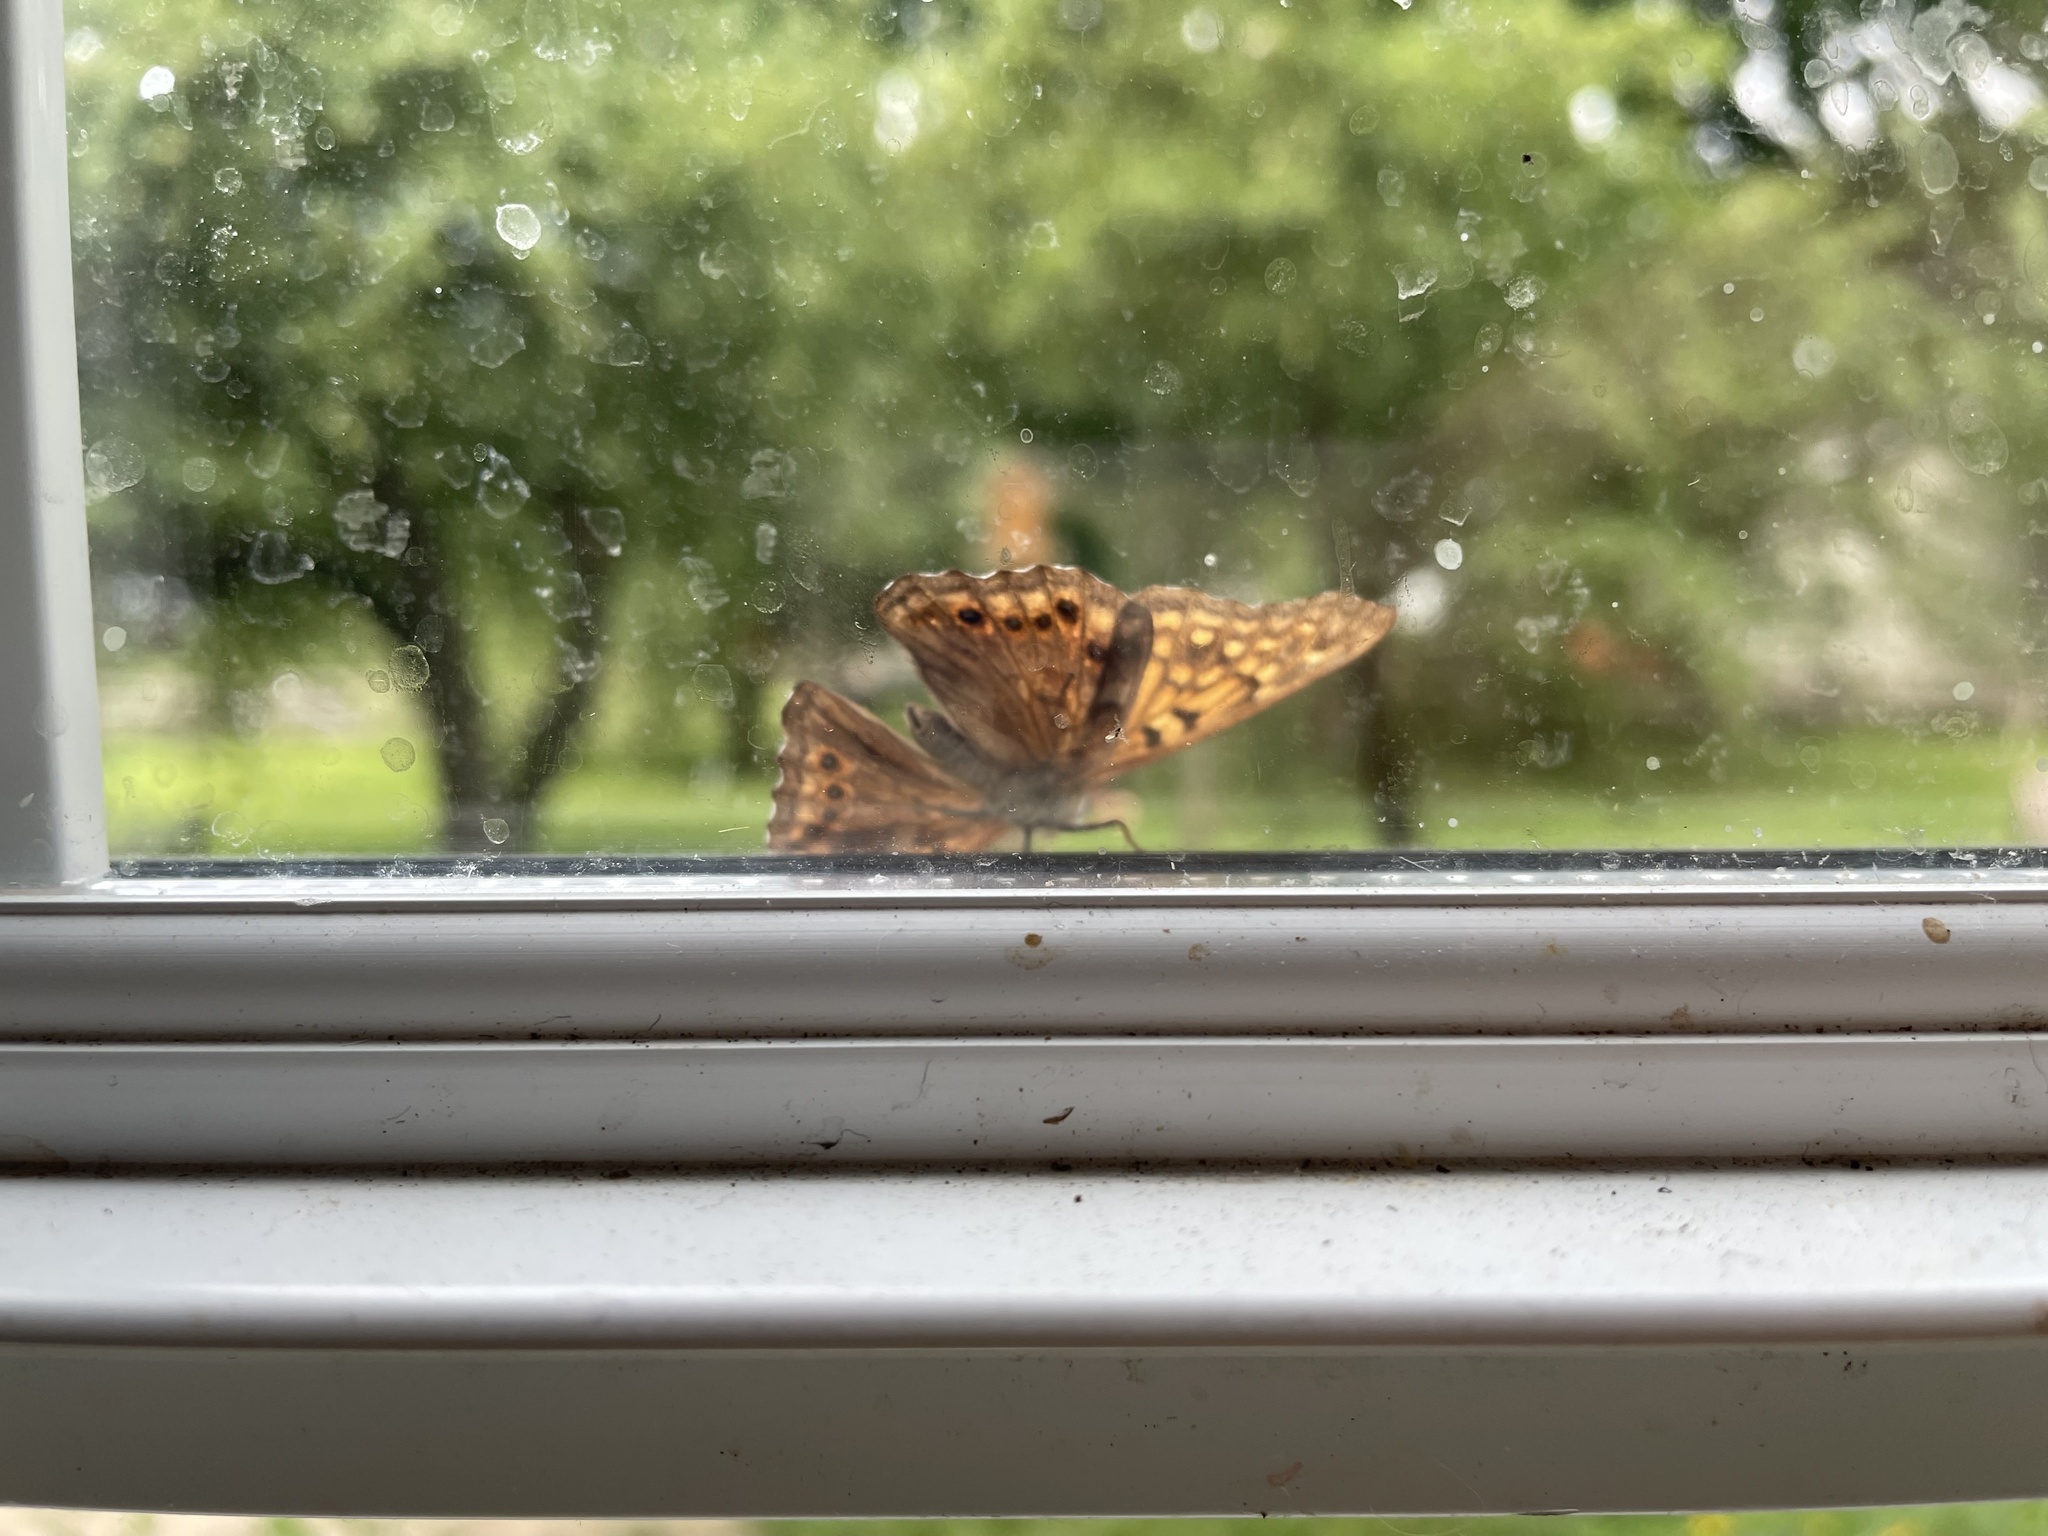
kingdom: Animalia
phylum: Arthropoda
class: Insecta
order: Lepidoptera
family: Nymphalidae
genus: Asterocampa
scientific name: Asterocampa clyton
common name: Tawny emperor
